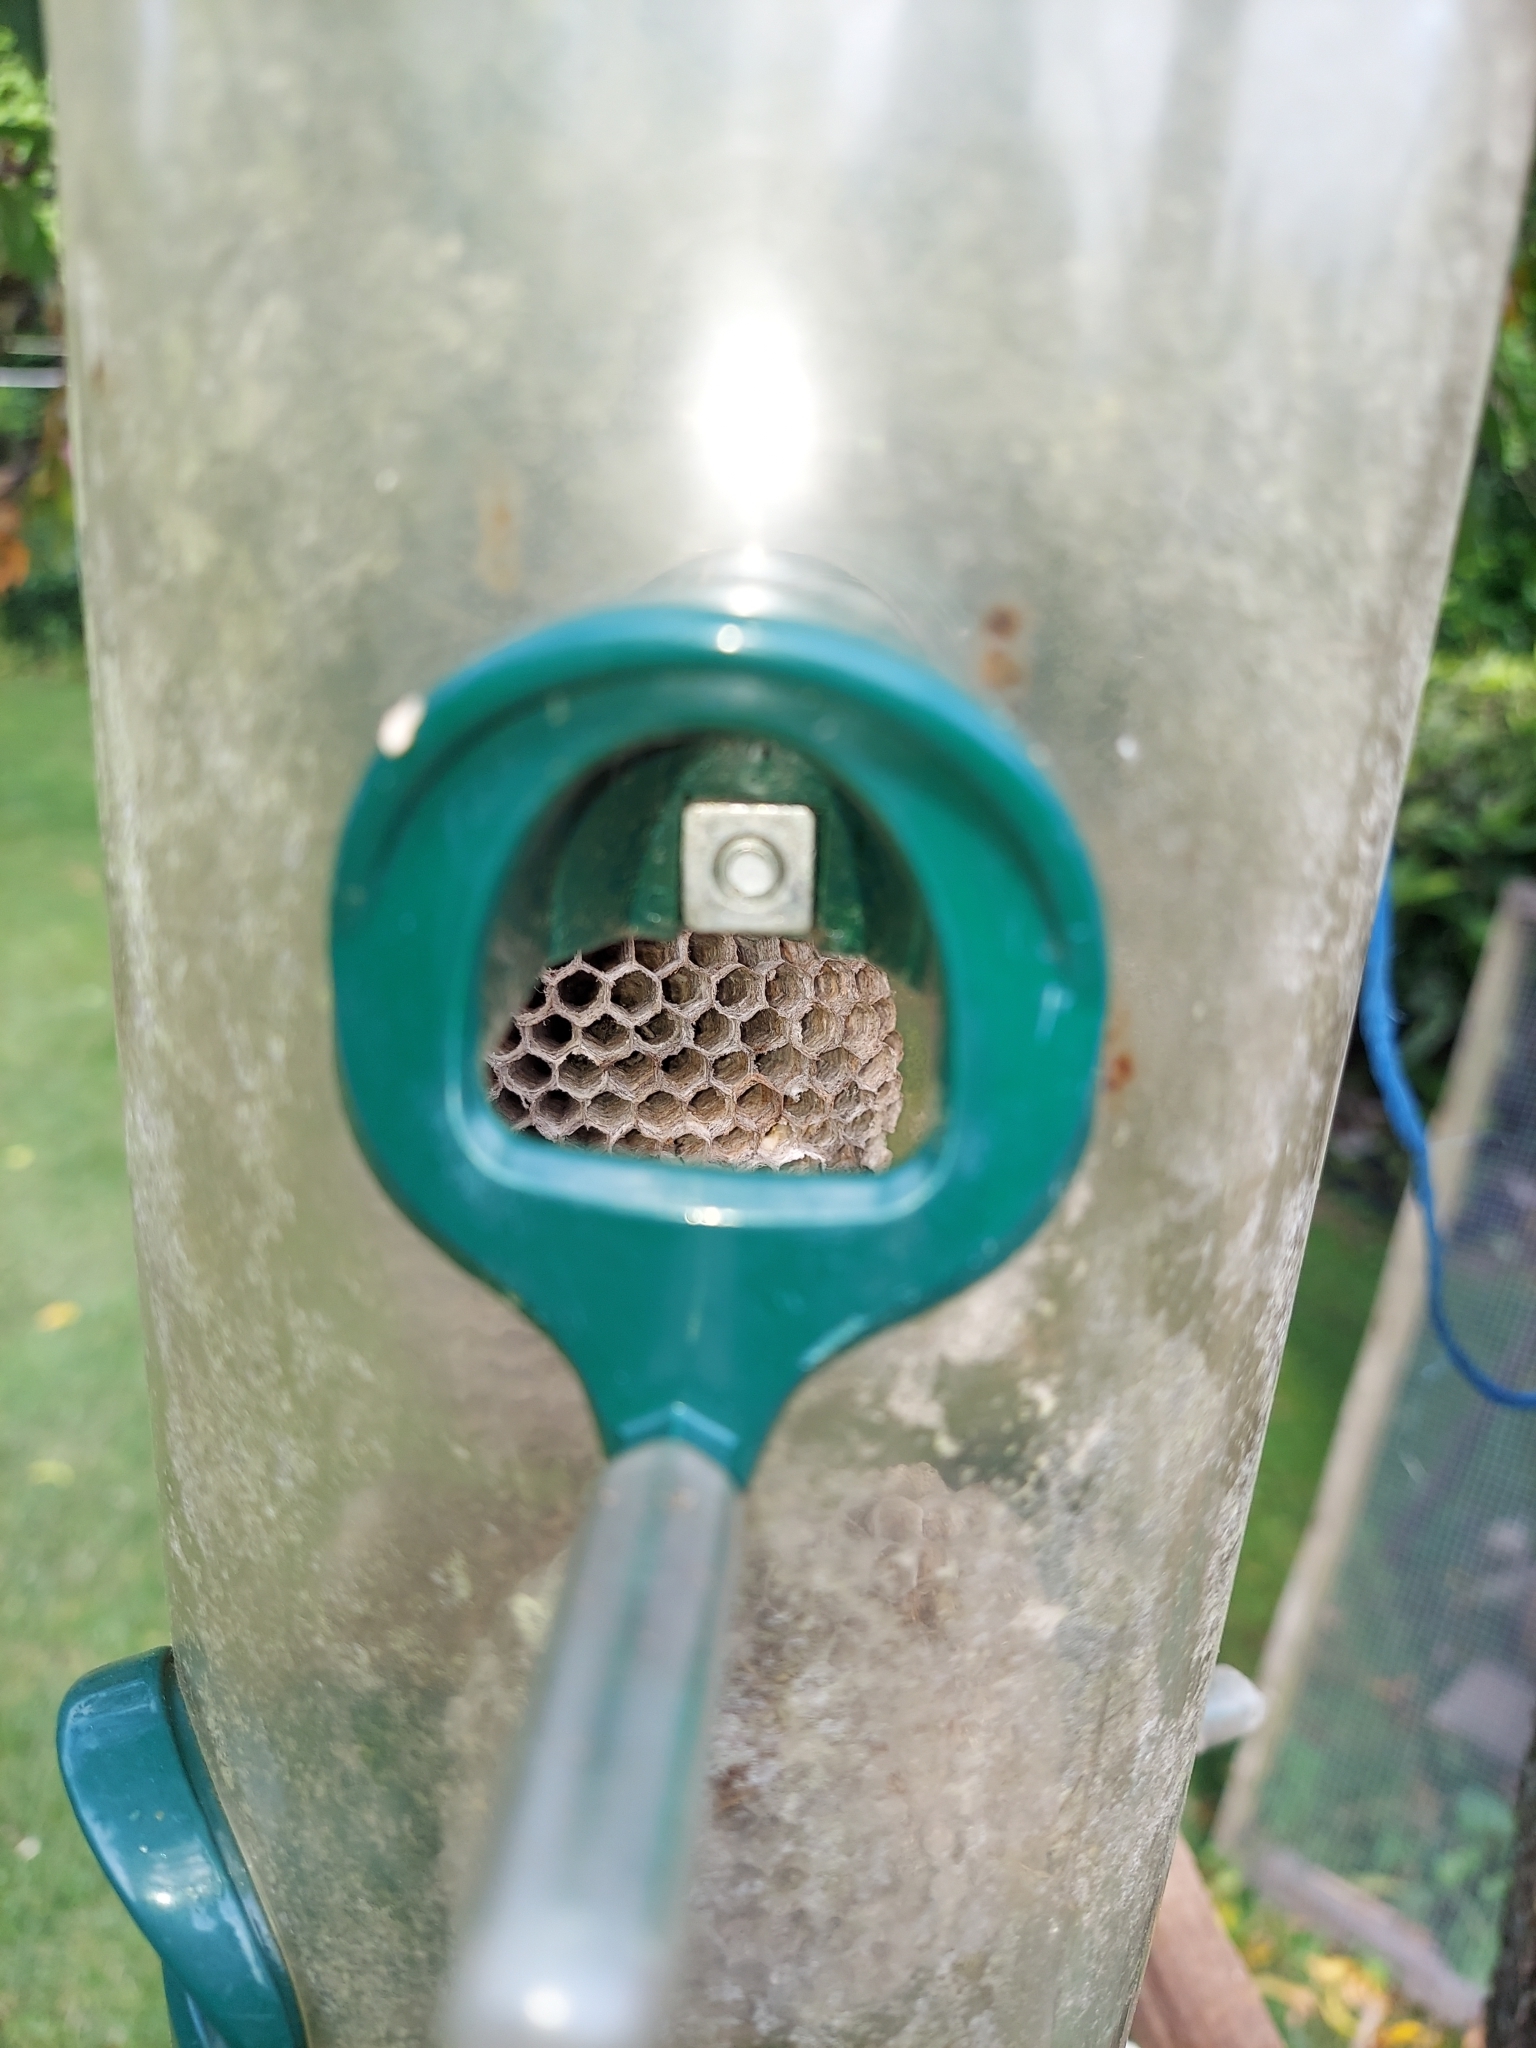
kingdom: Animalia
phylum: Arthropoda
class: Insecta
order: Hymenoptera
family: Eumenidae
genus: Polistes
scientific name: Polistes dominula
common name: Paper wasp
